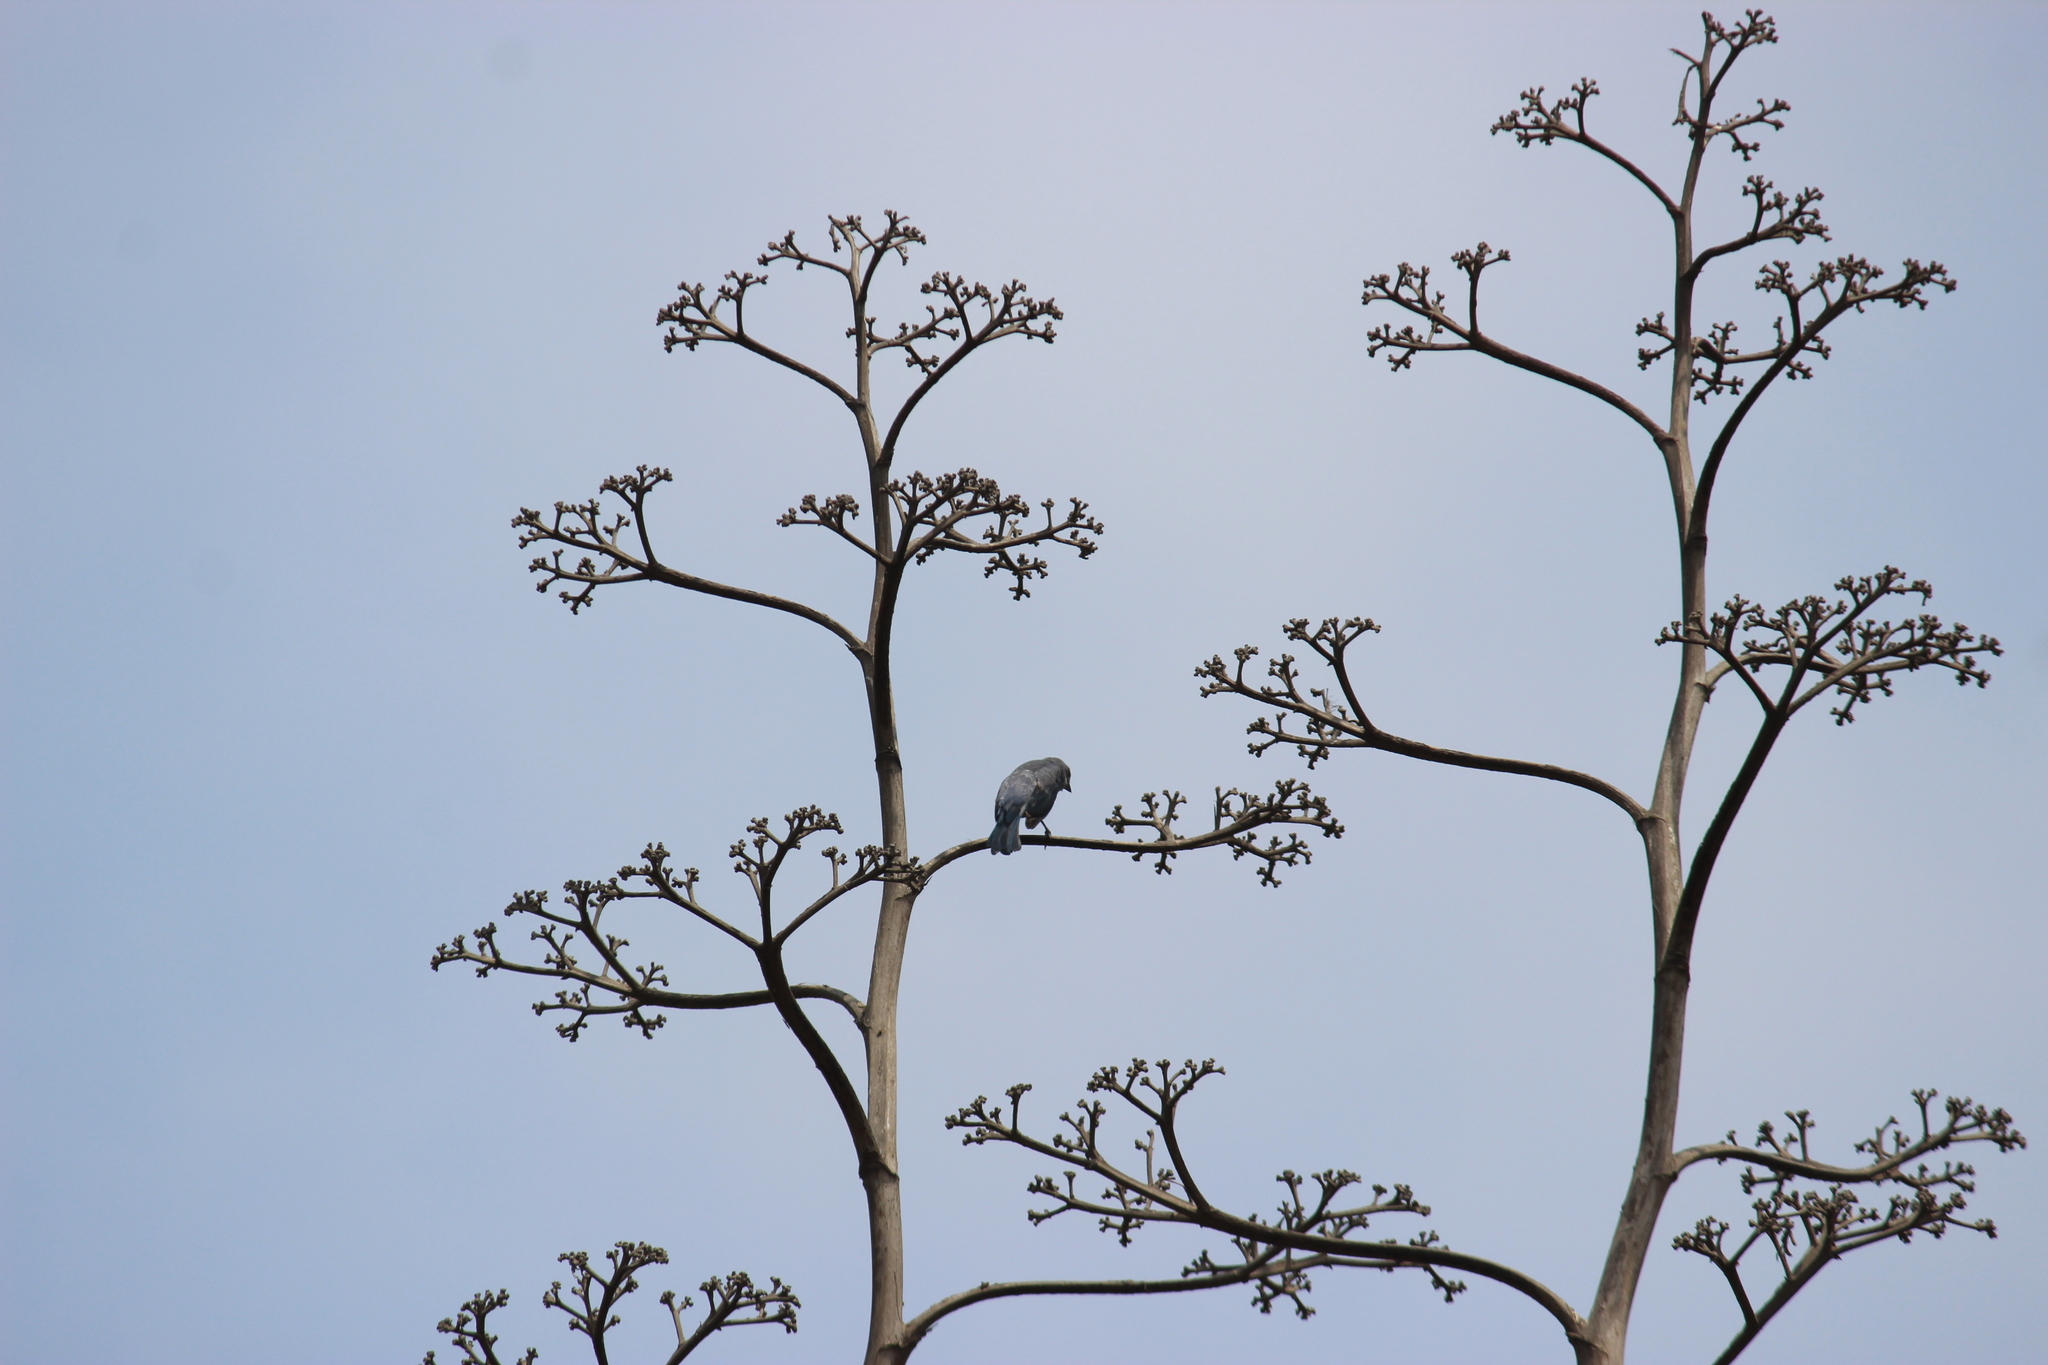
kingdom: Animalia
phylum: Chordata
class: Aves
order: Passeriformes
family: Thraupidae
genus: Thraupis
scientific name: Thraupis episcopus
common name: Blue-grey tanager
